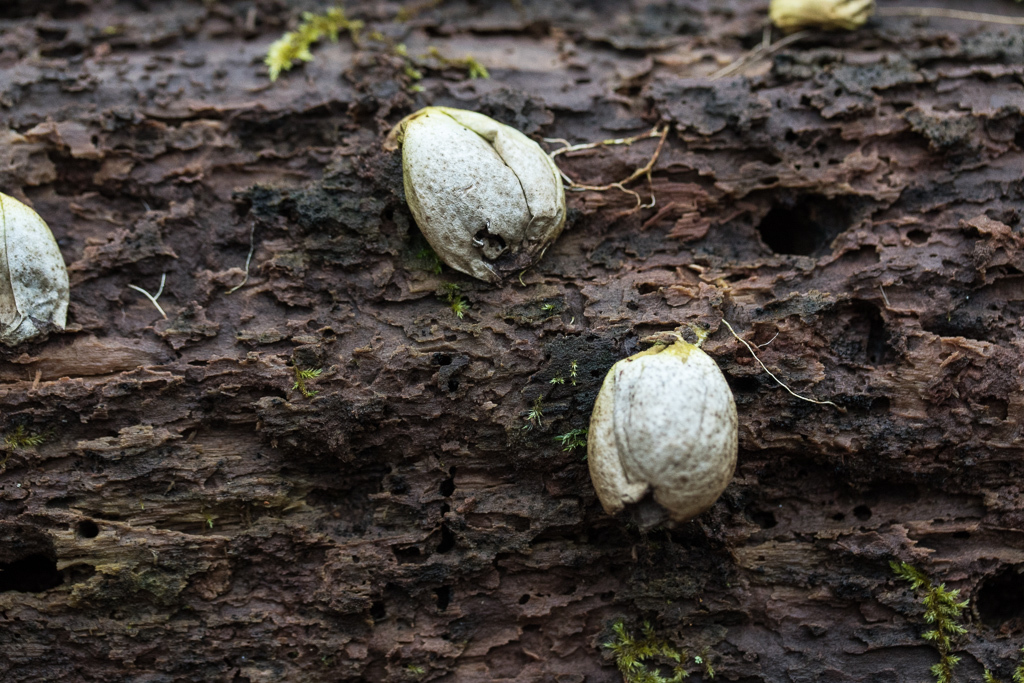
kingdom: Fungi
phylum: Basidiomycota
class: Agaricomycetes
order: Agaricales
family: Lycoperdaceae
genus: Apioperdon
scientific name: Apioperdon pyriforme
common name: Pear-shaped puffball
